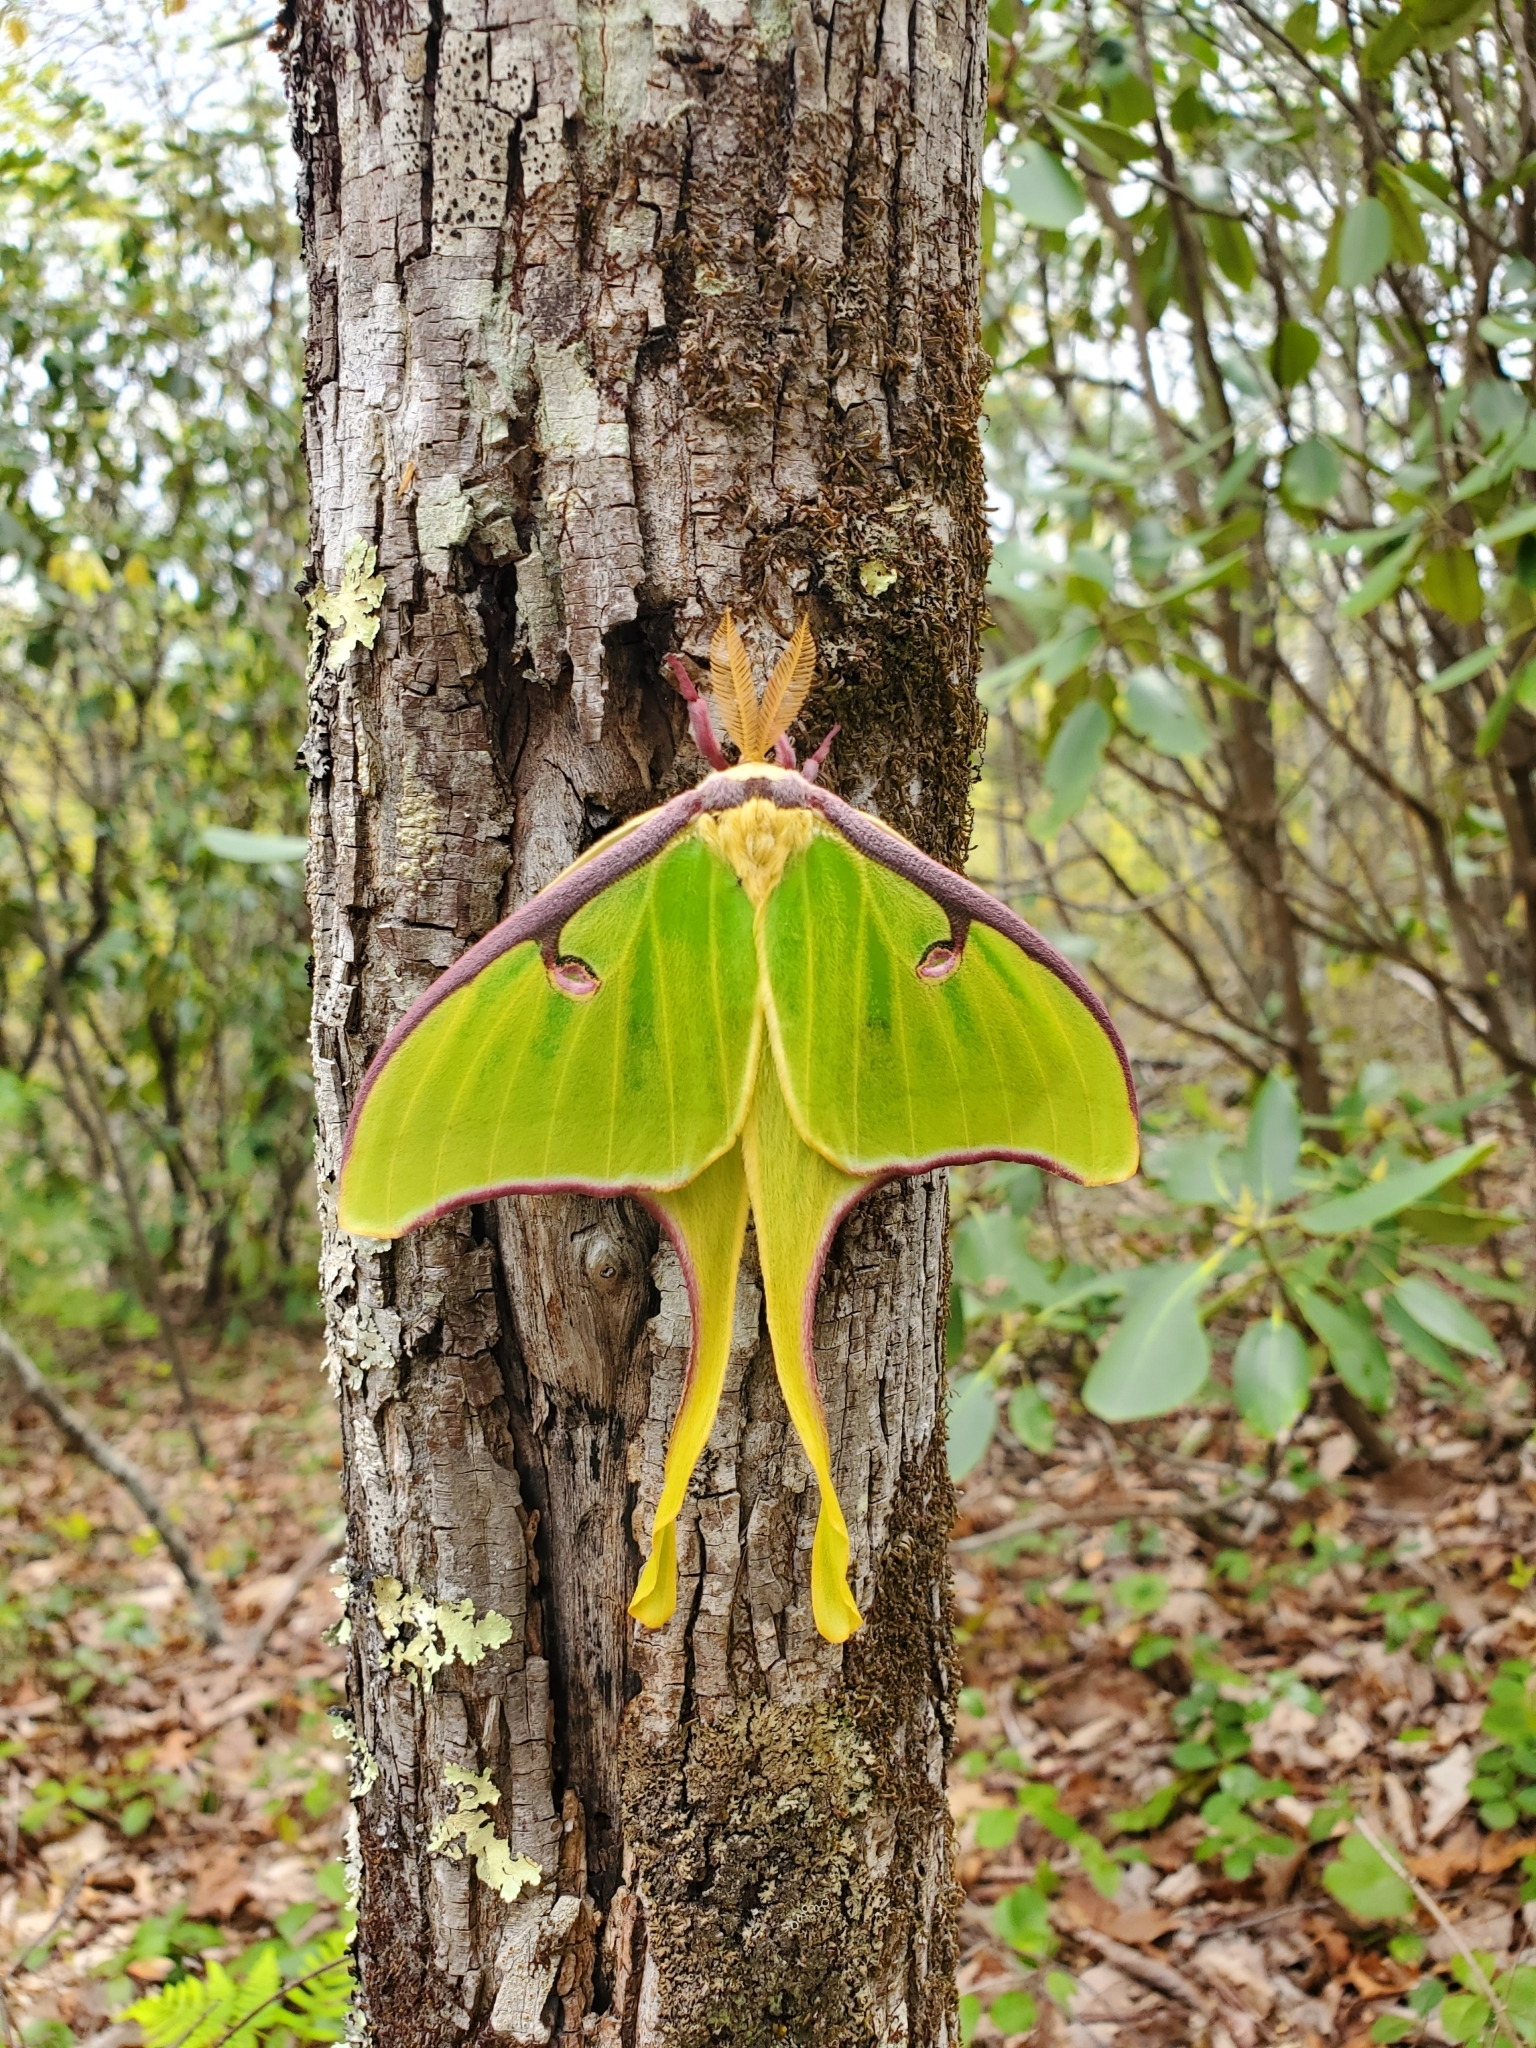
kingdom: Animalia
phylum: Arthropoda
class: Insecta
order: Lepidoptera
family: Saturniidae
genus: Actias
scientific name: Actias luna
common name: Luna moth
